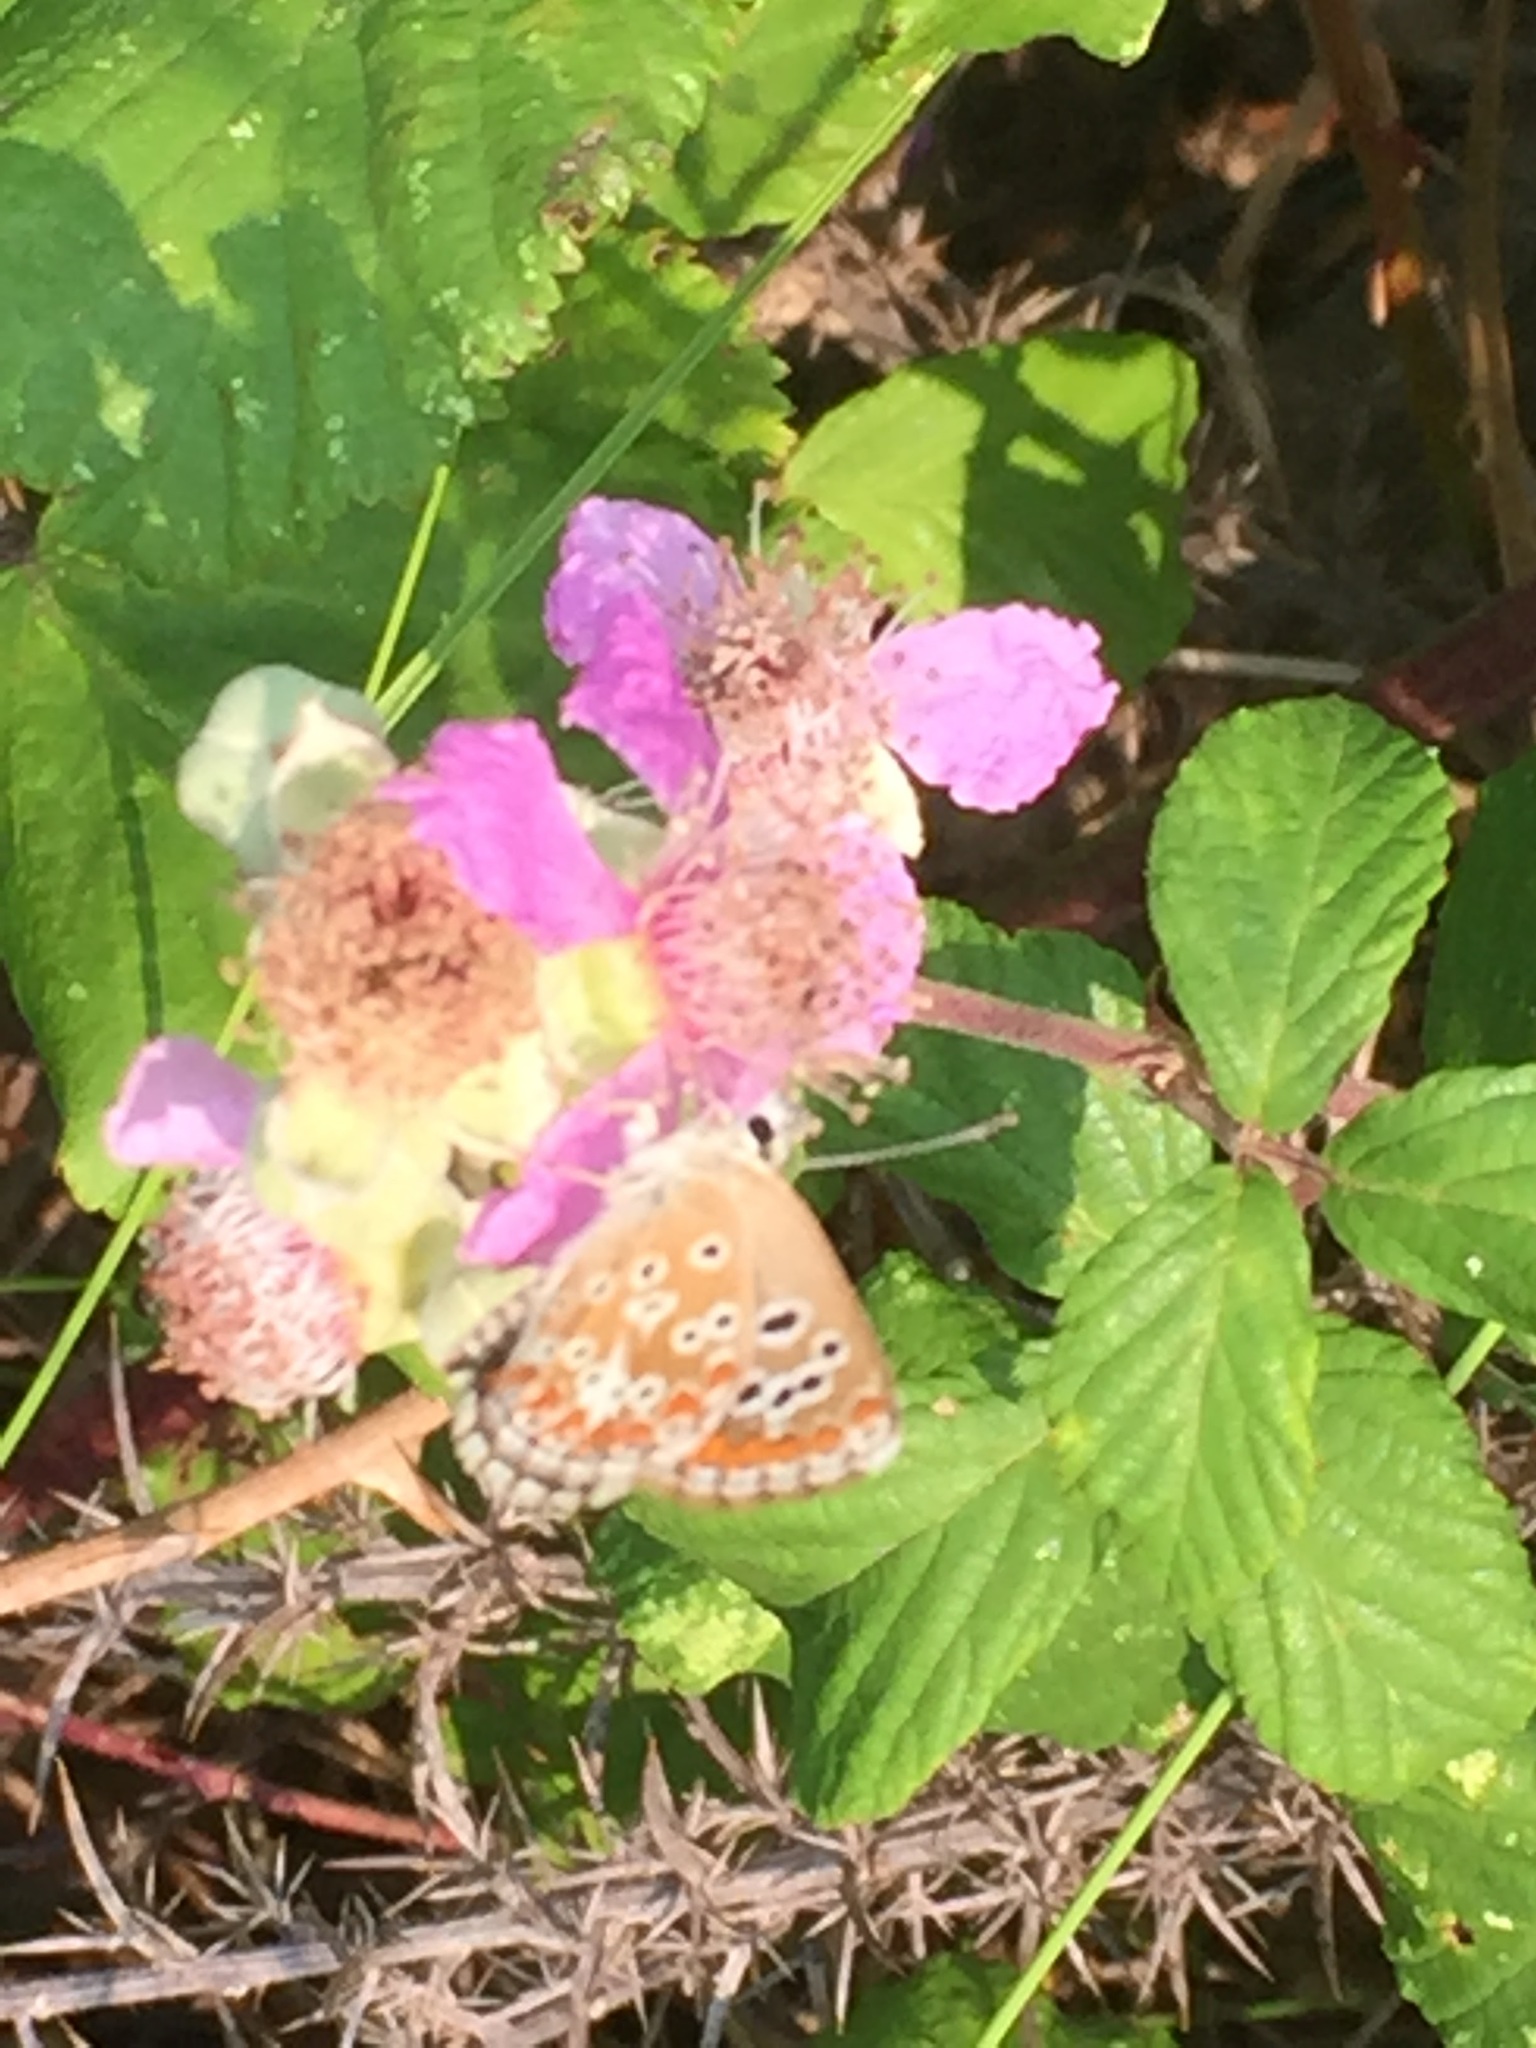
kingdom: Animalia
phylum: Arthropoda
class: Insecta
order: Lepidoptera
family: Lycaenidae
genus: Aricia
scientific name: Aricia cramera
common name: Eschscholtz´s brown  argus
